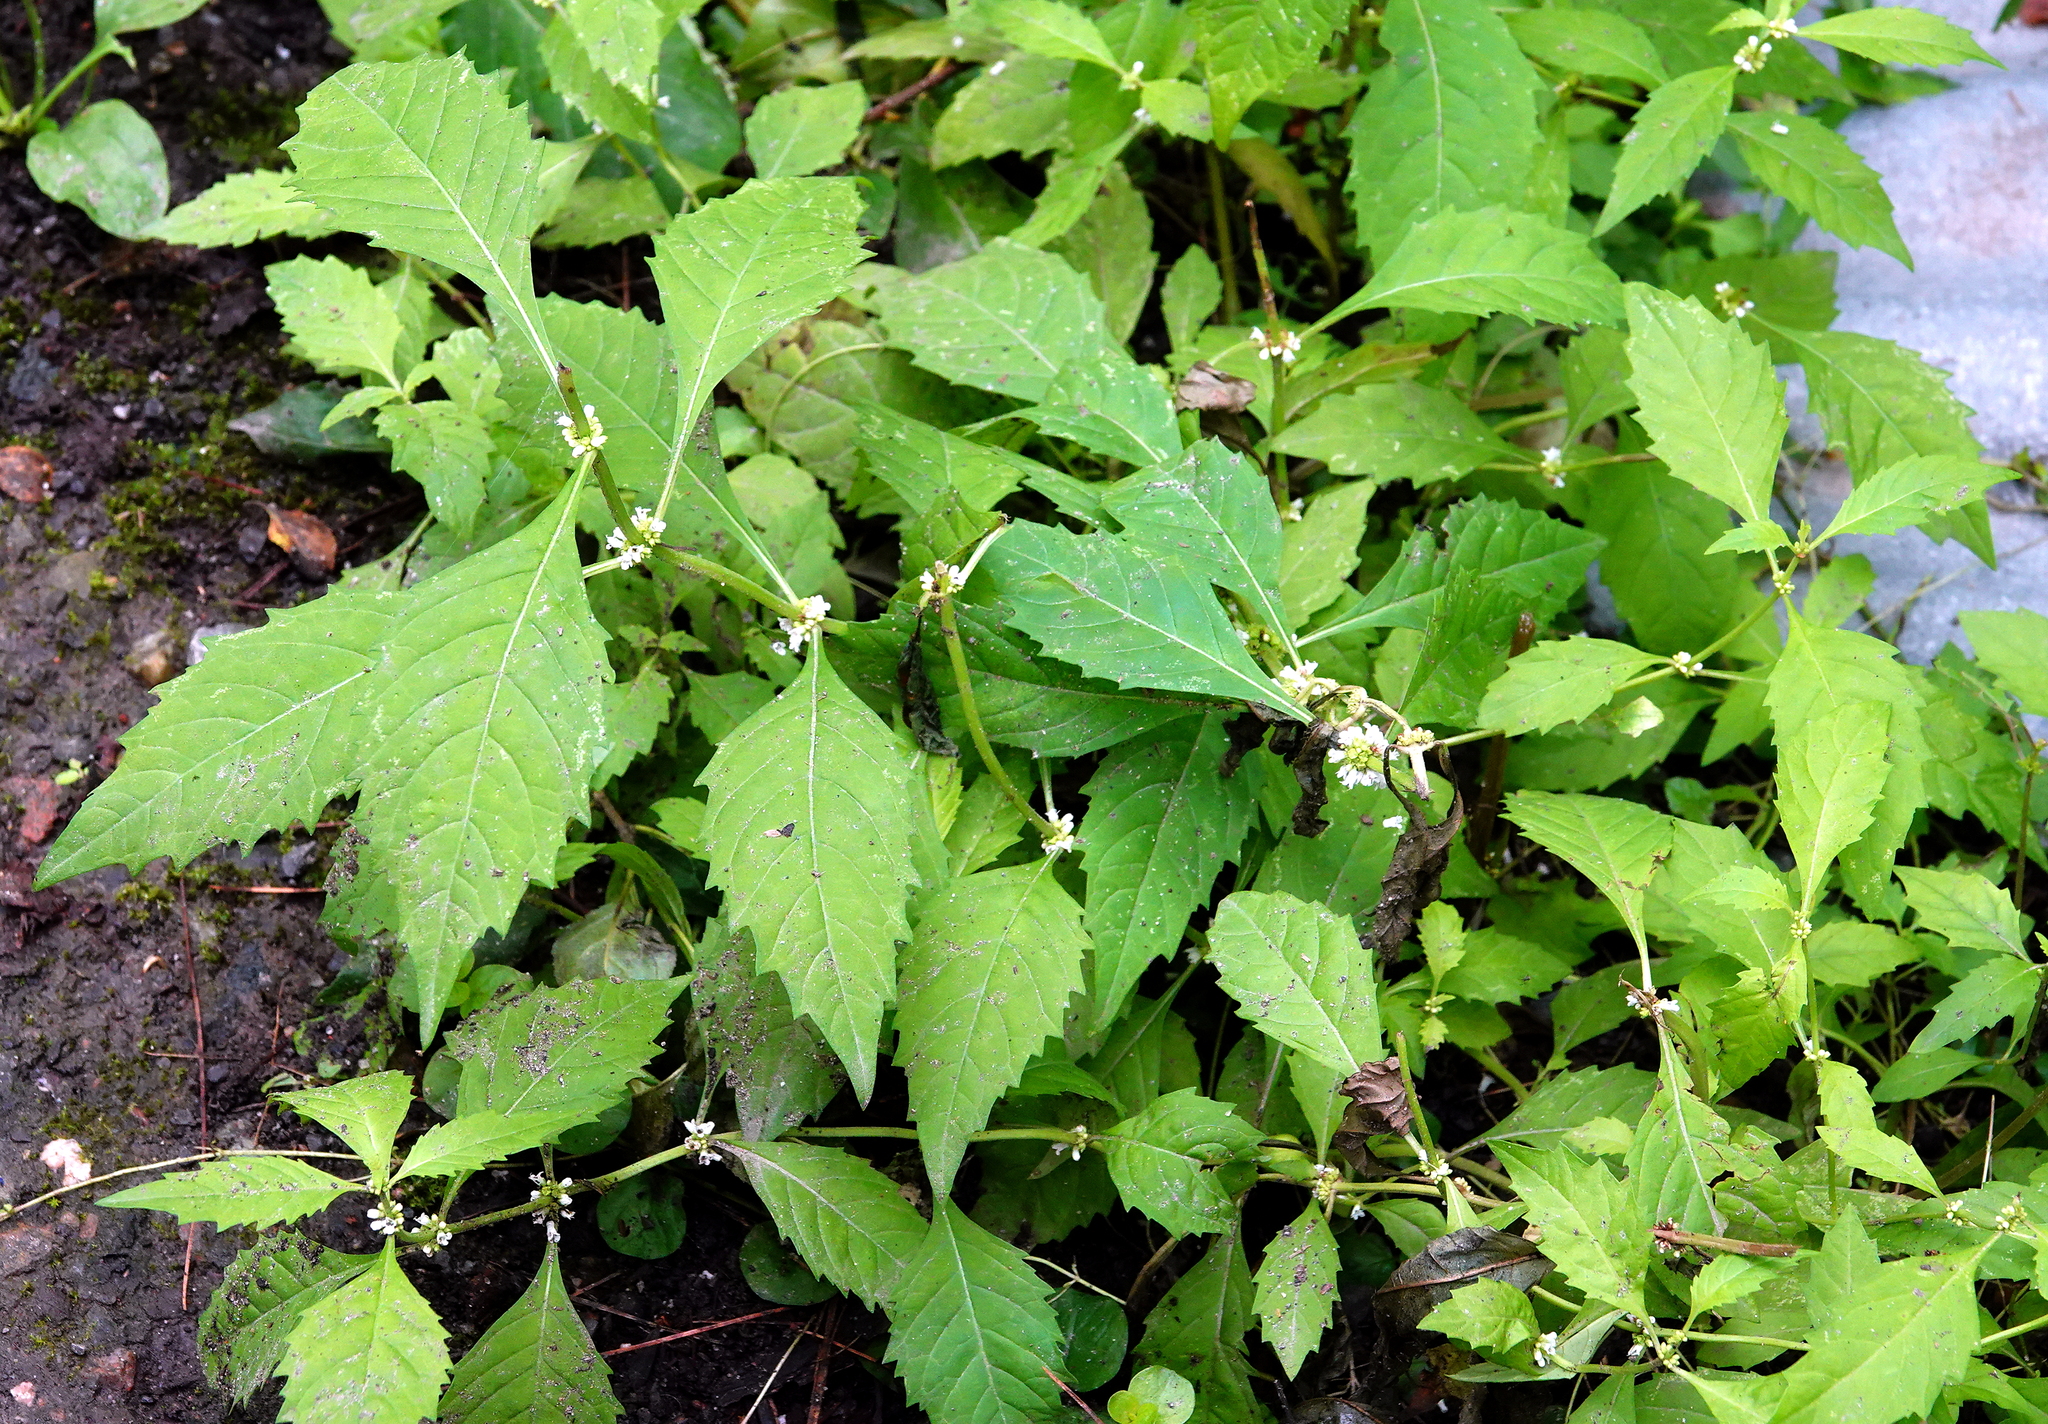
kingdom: Plantae
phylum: Tracheophyta
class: Magnoliopsida
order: Lamiales
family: Lamiaceae
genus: Lycopus
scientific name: Lycopus uniflorus
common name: Northern bugleweed
